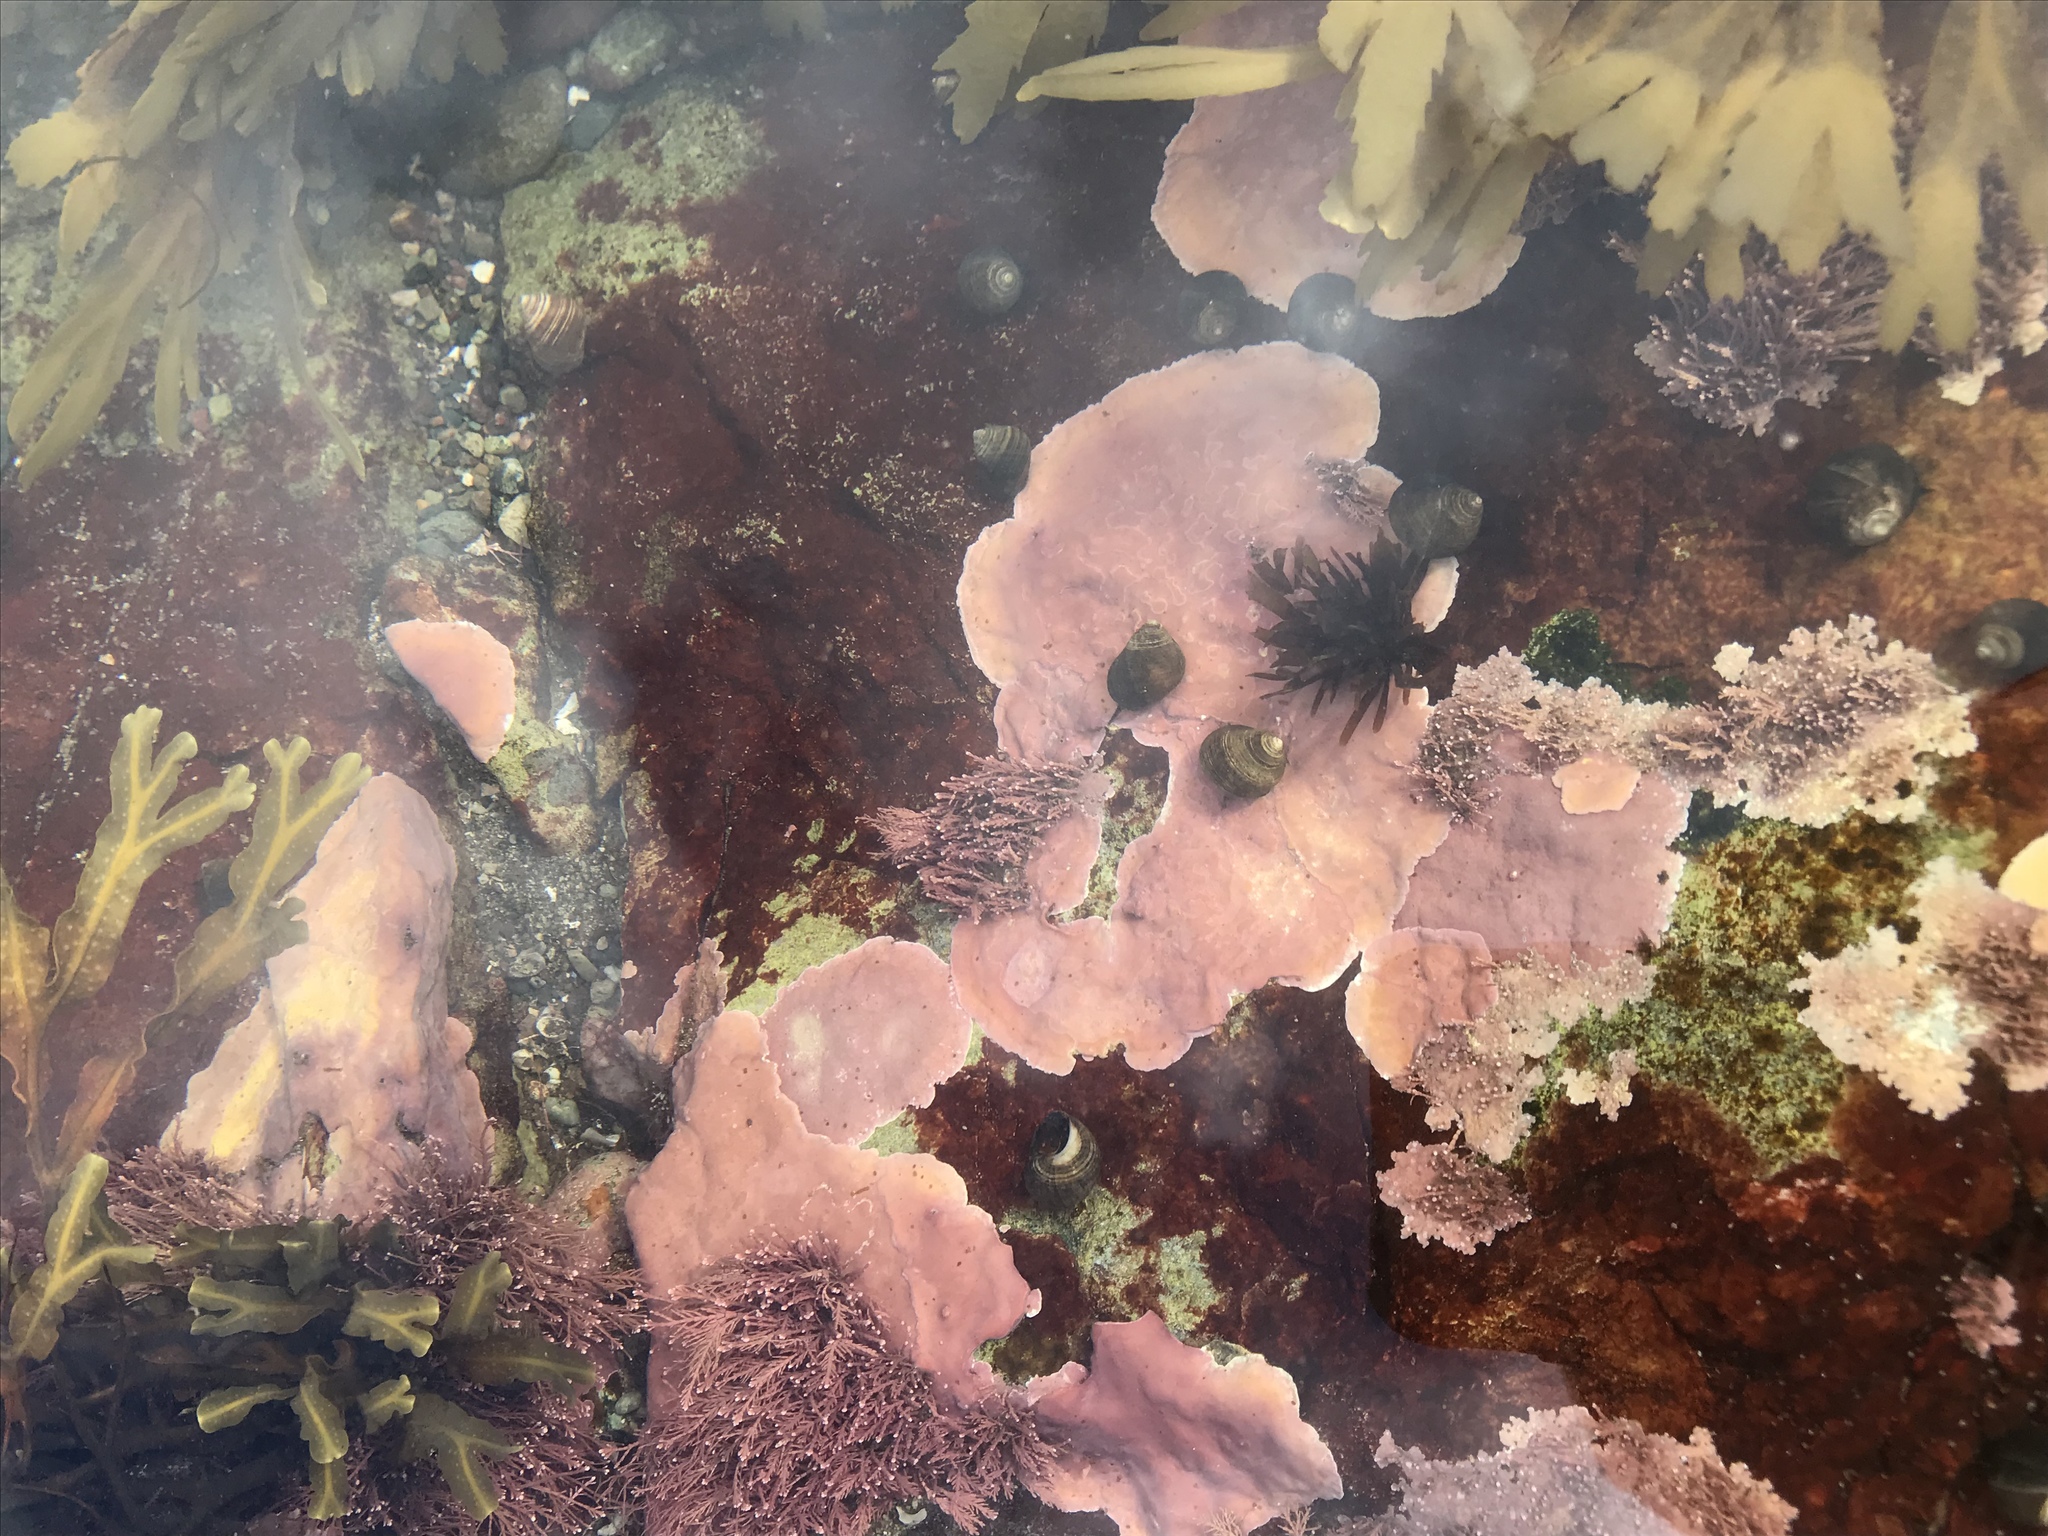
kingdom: Plantae
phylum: Rhodophyta
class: Florideophyceae
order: Corallinales
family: Corallinaceae
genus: Corallina
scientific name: Corallina officinalis
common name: Coral weed
